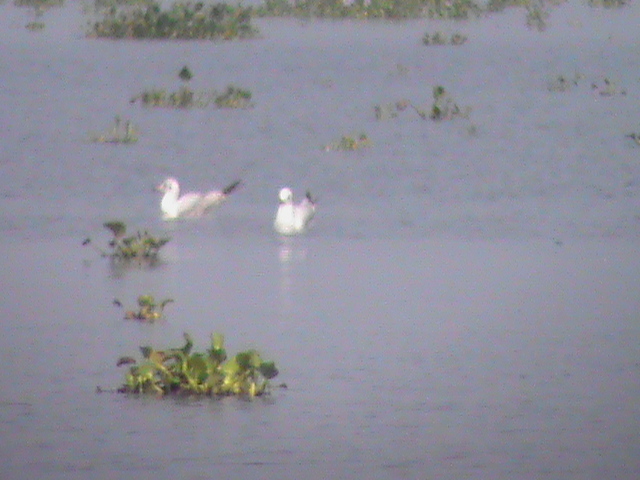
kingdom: Animalia
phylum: Chordata
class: Aves
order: Charadriiformes
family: Laridae
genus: Chroicocephalus
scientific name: Chroicocephalus ridibundus
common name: Black-headed gull
